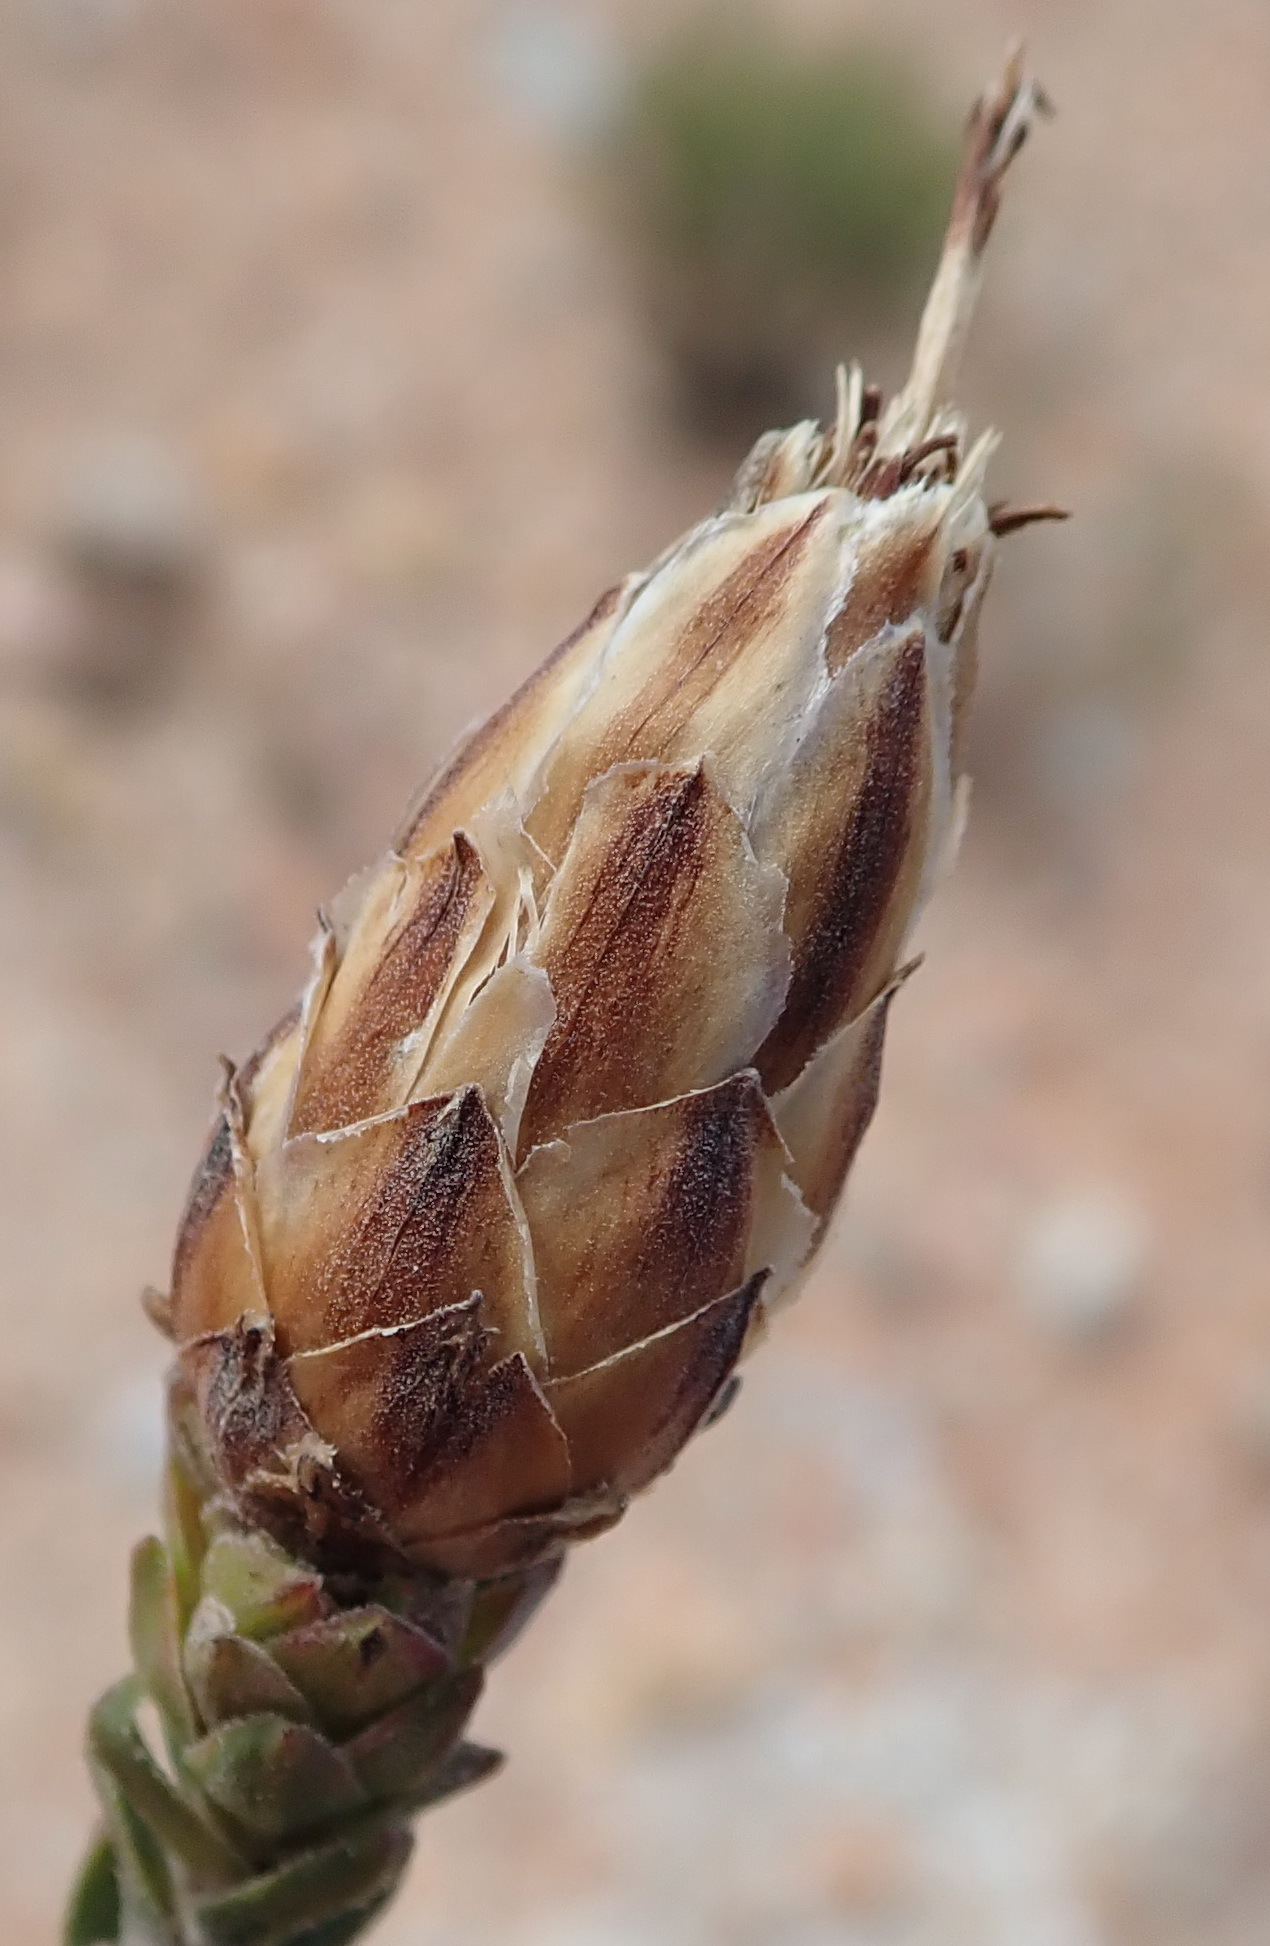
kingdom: Plantae
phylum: Tracheophyta
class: Magnoliopsida
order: Asterales
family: Asteraceae
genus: Pteronia
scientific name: Pteronia staehelinoides
